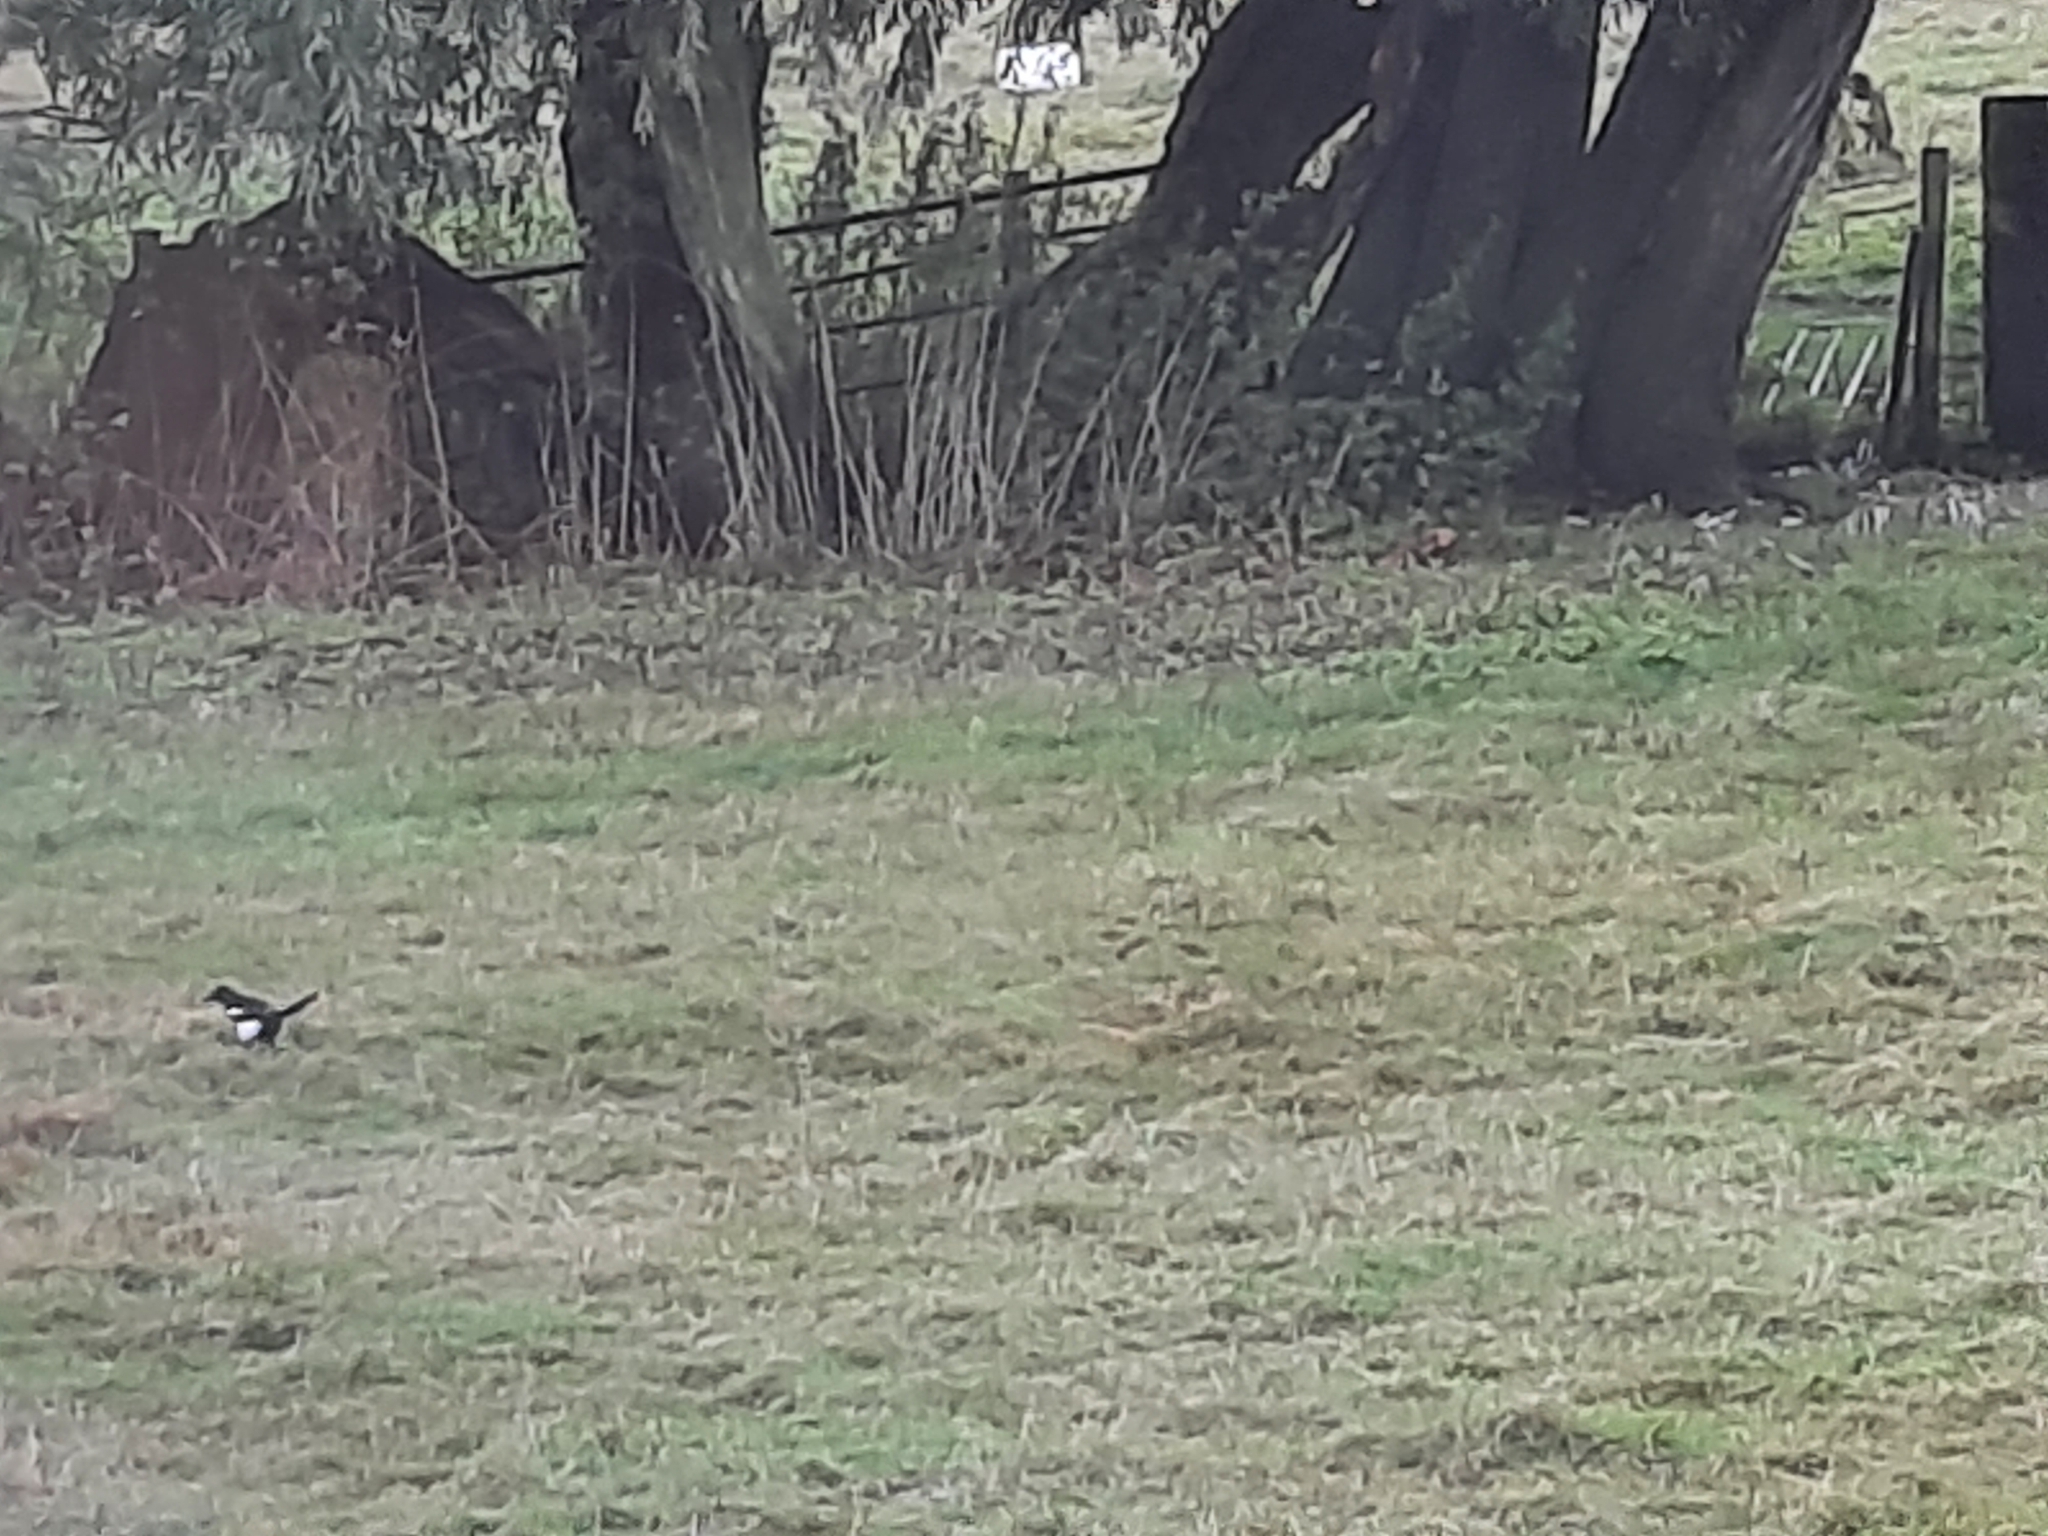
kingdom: Animalia
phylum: Chordata
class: Aves
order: Passeriformes
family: Corvidae
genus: Pica
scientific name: Pica pica
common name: Eurasian magpie
